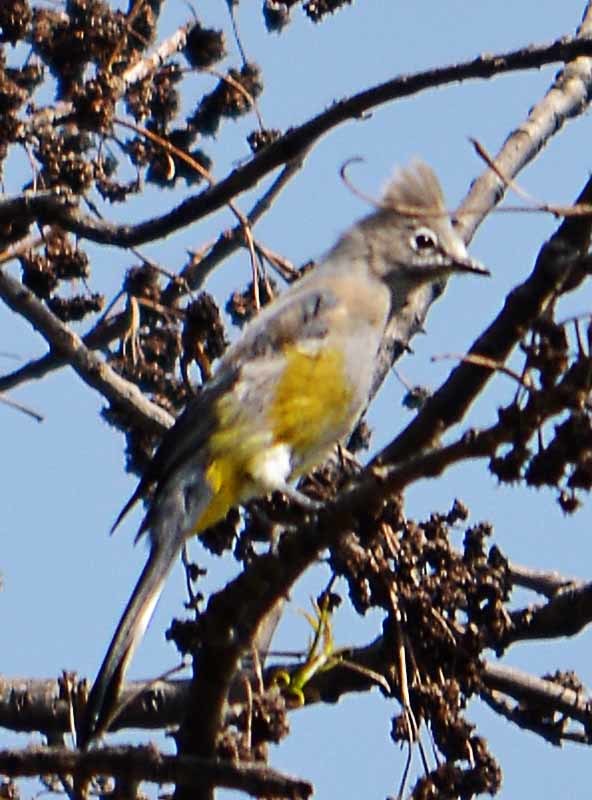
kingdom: Animalia
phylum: Chordata
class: Aves
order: Passeriformes
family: Ptilogonatidae
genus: Ptilogonys
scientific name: Ptilogonys cinereus
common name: Gray silky-flycatcher
